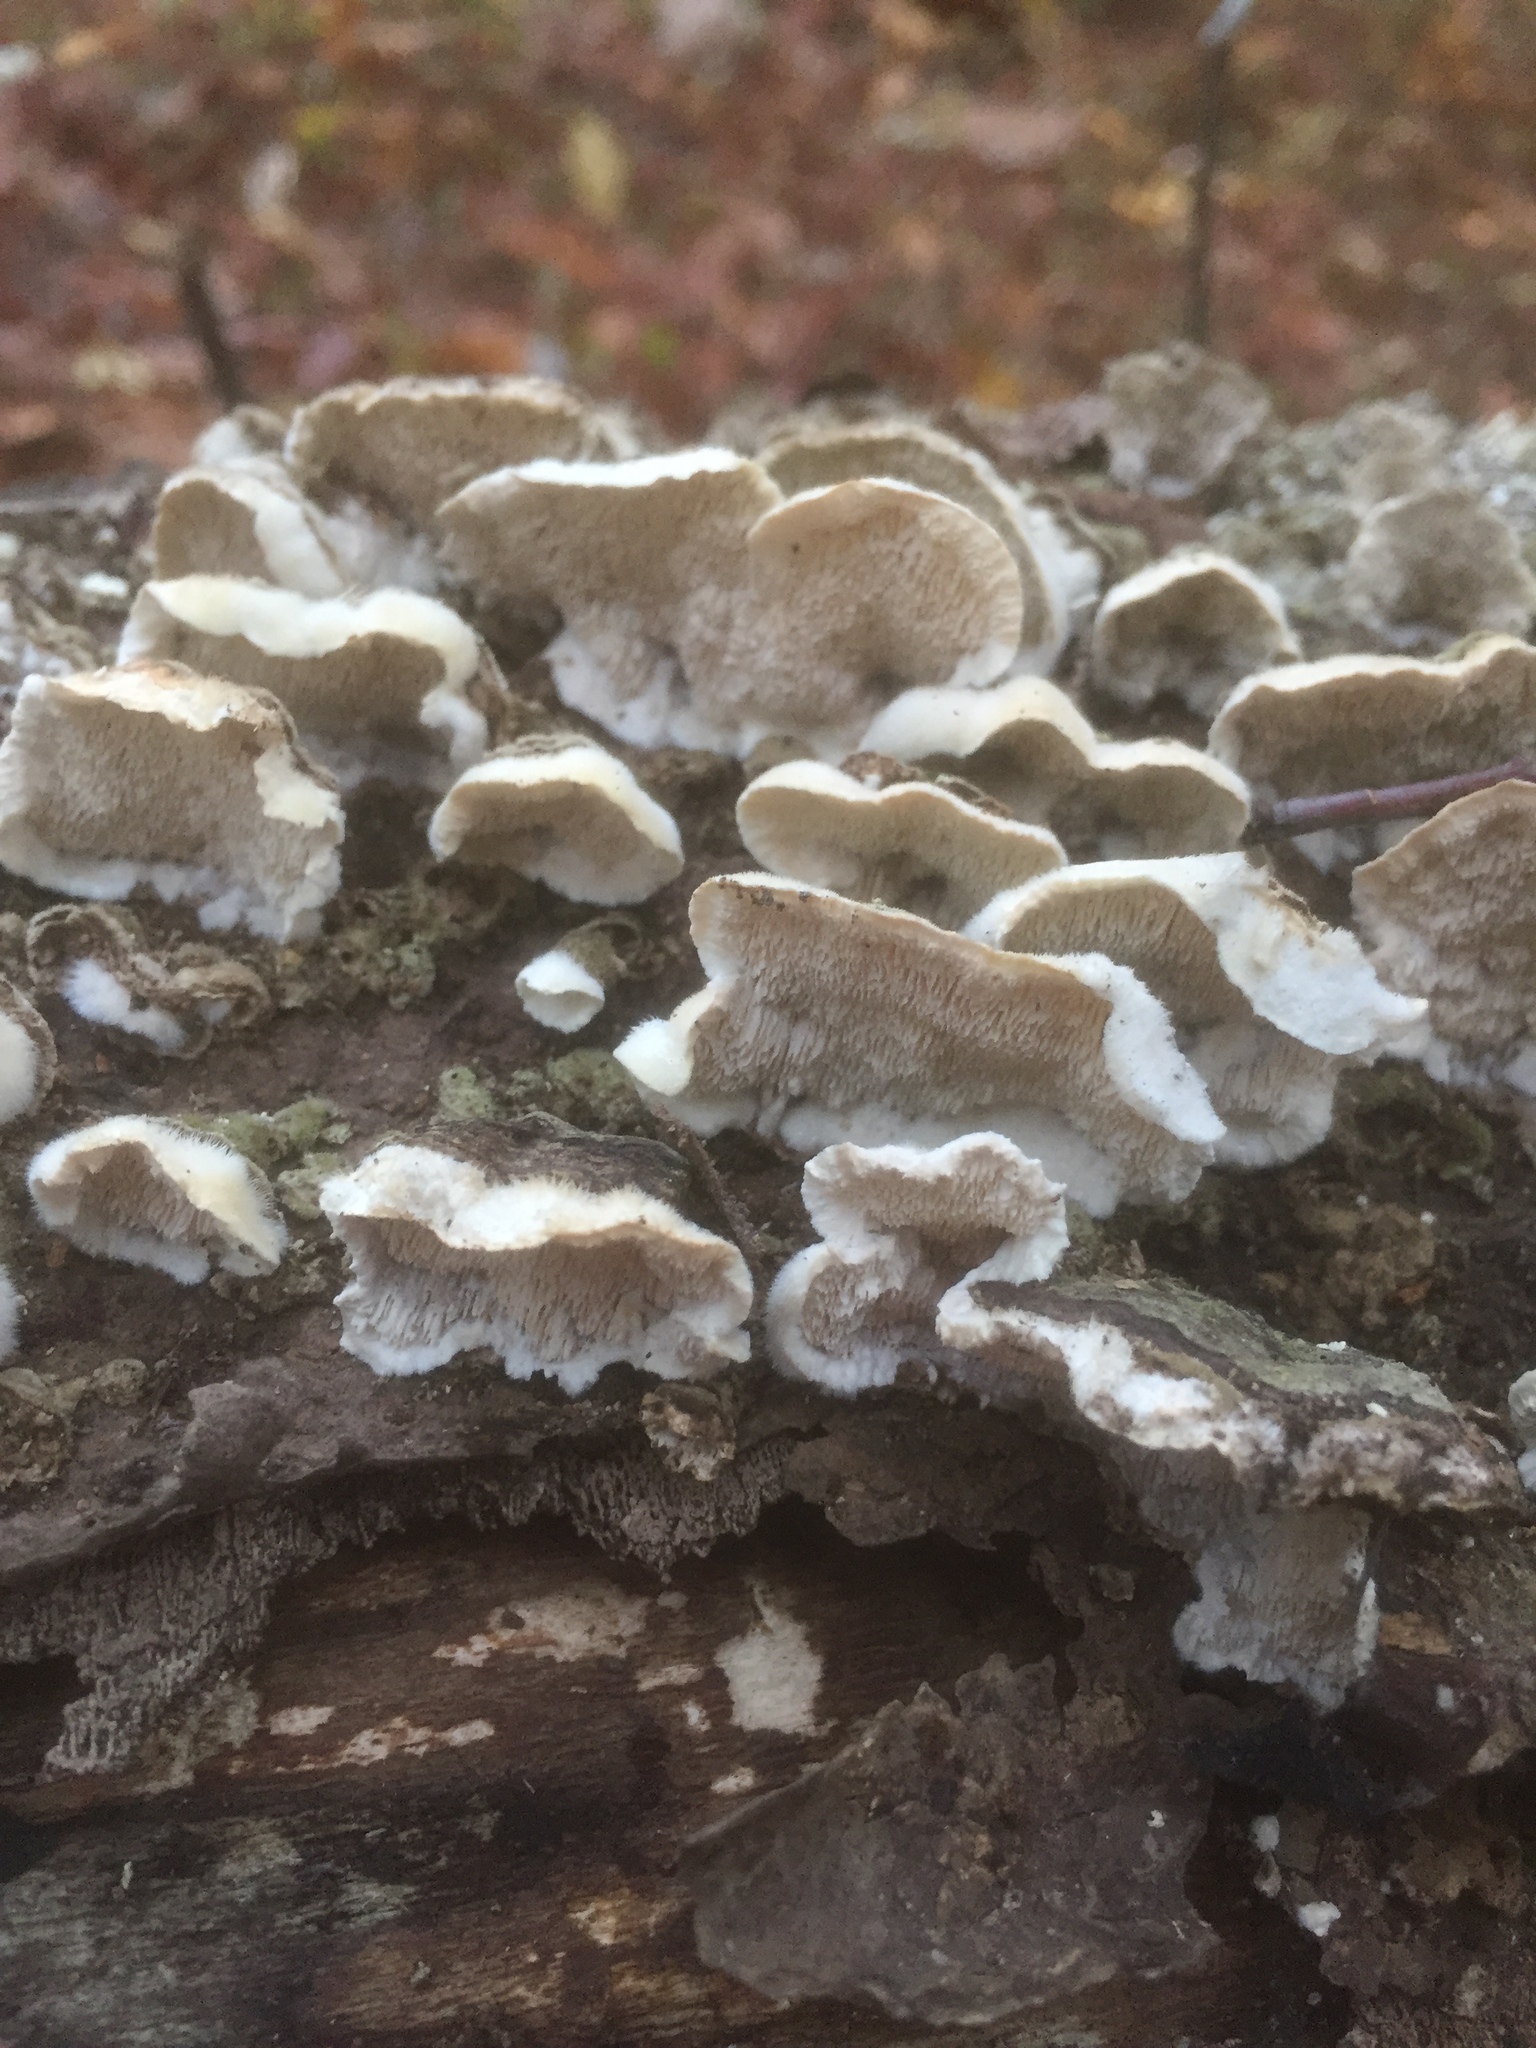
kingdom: Fungi
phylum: Basidiomycota
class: Agaricomycetes
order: Polyporales
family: Cerrenaceae
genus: Cerrena
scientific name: Cerrena unicolor
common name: Mossy maze polypore
